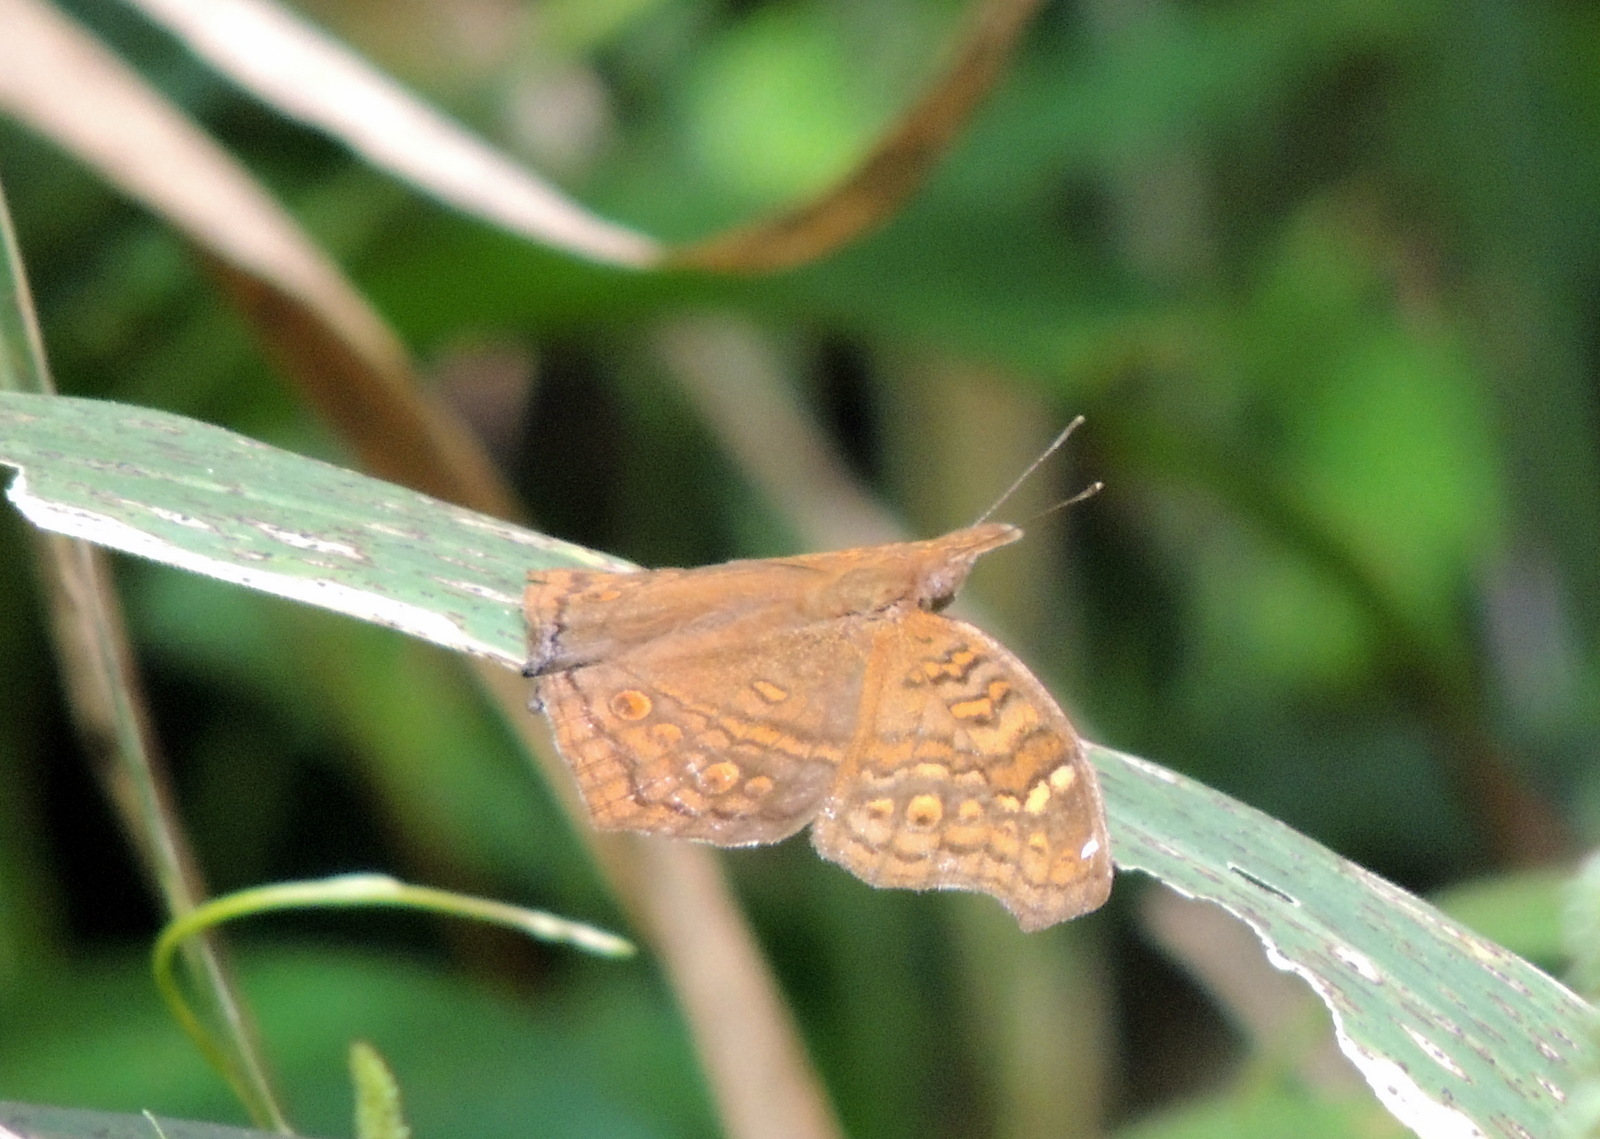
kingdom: Animalia
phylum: Arthropoda
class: Insecta
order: Lepidoptera
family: Nymphalidae
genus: Junonia
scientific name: Junonia chorimene
